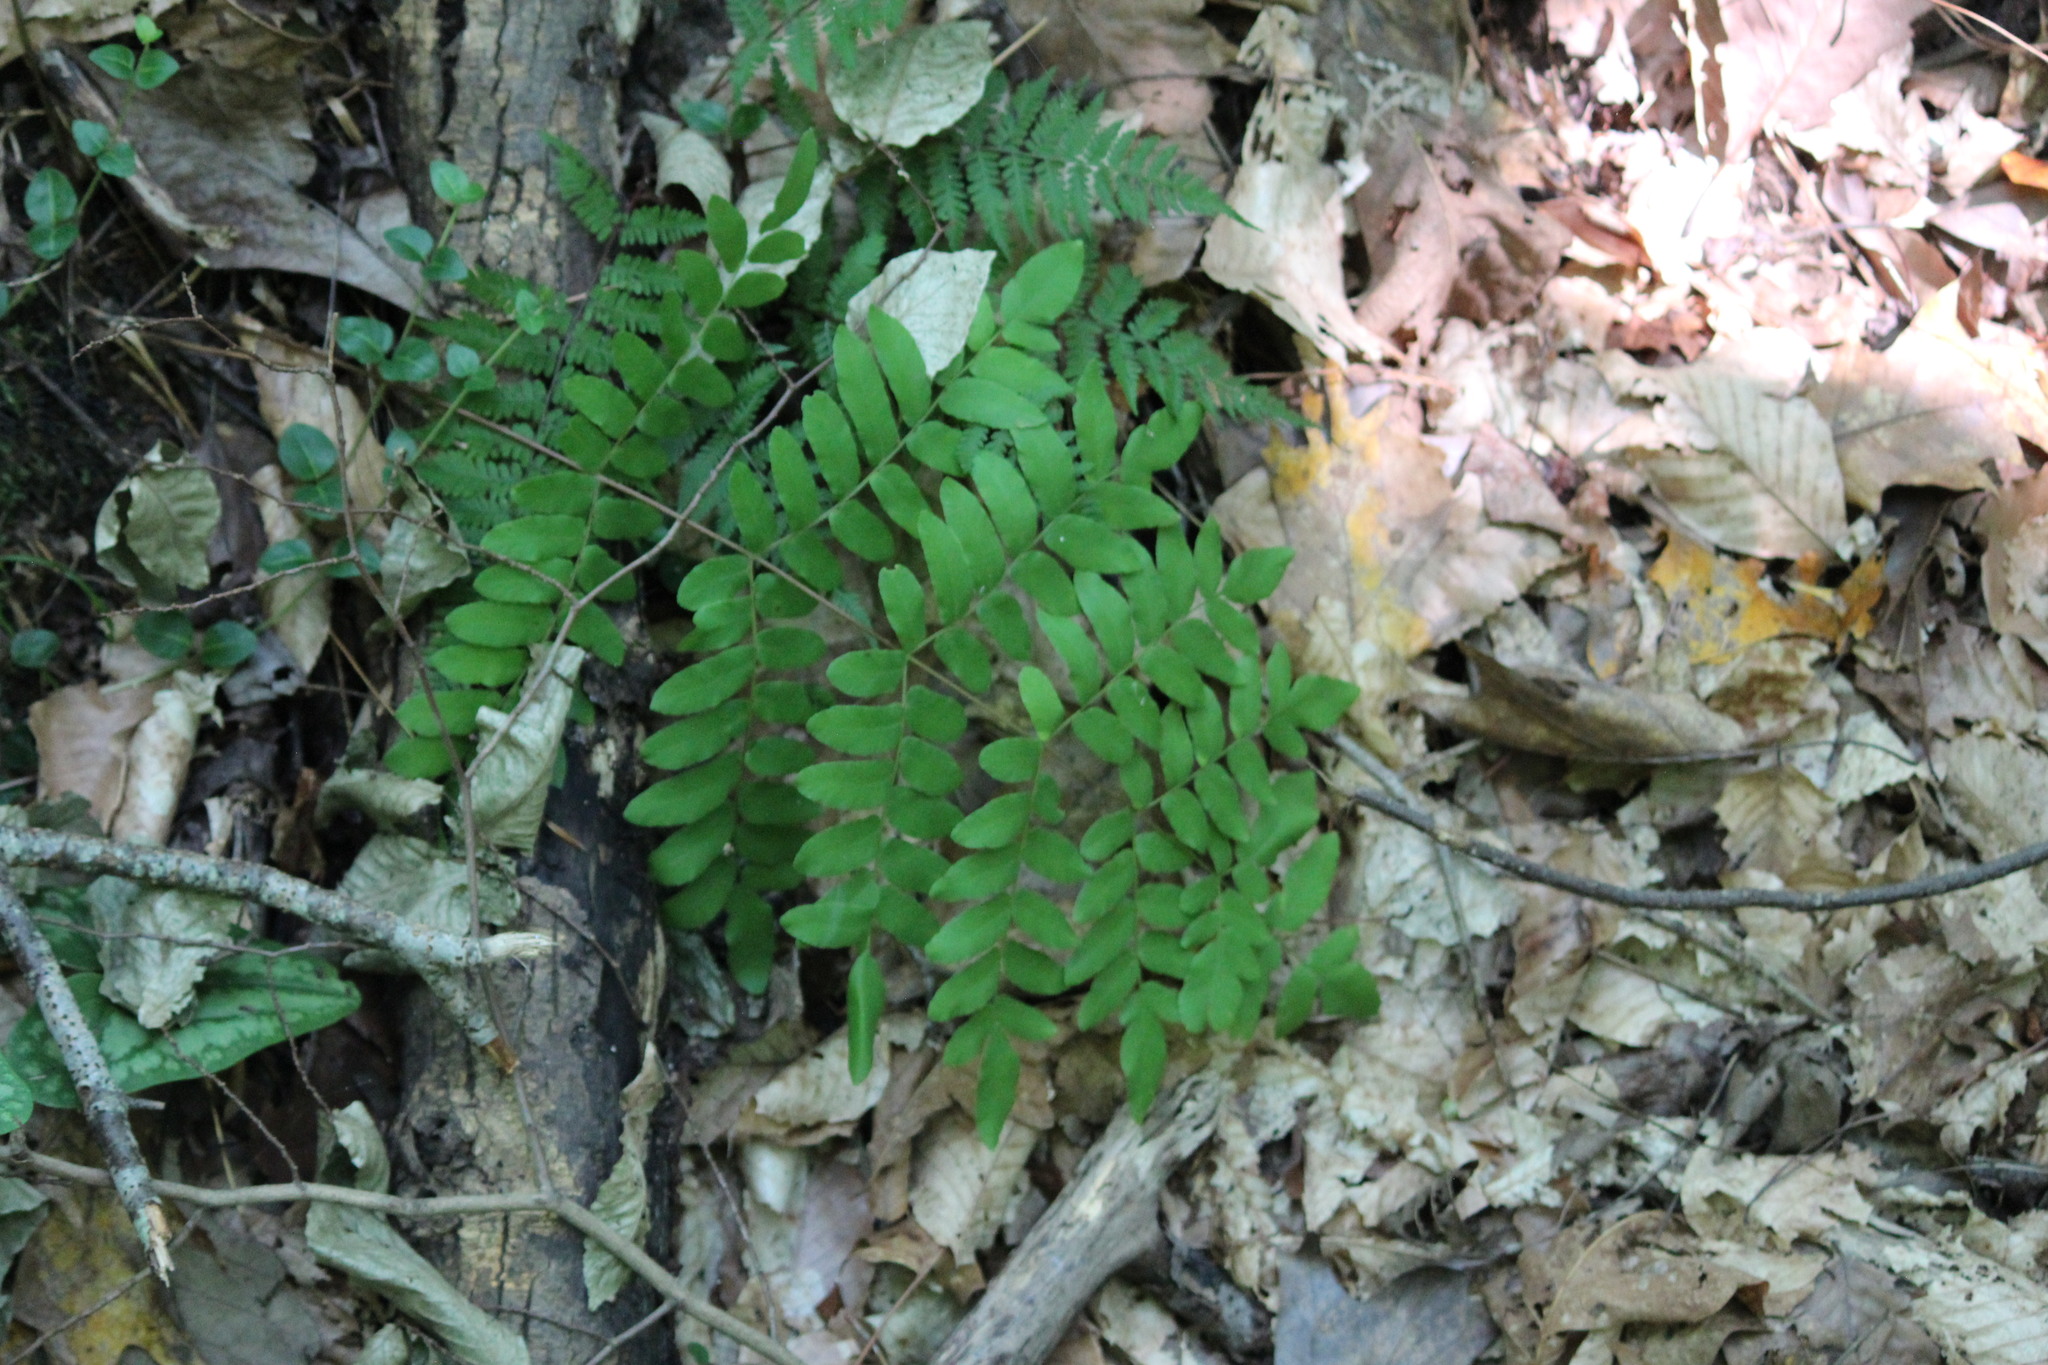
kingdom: Plantae
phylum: Tracheophyta
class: Polypodiopsida
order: Osmundales
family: Osmundaceae
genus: Osmunda
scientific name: Osmunda spectabilis
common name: American royal fern
